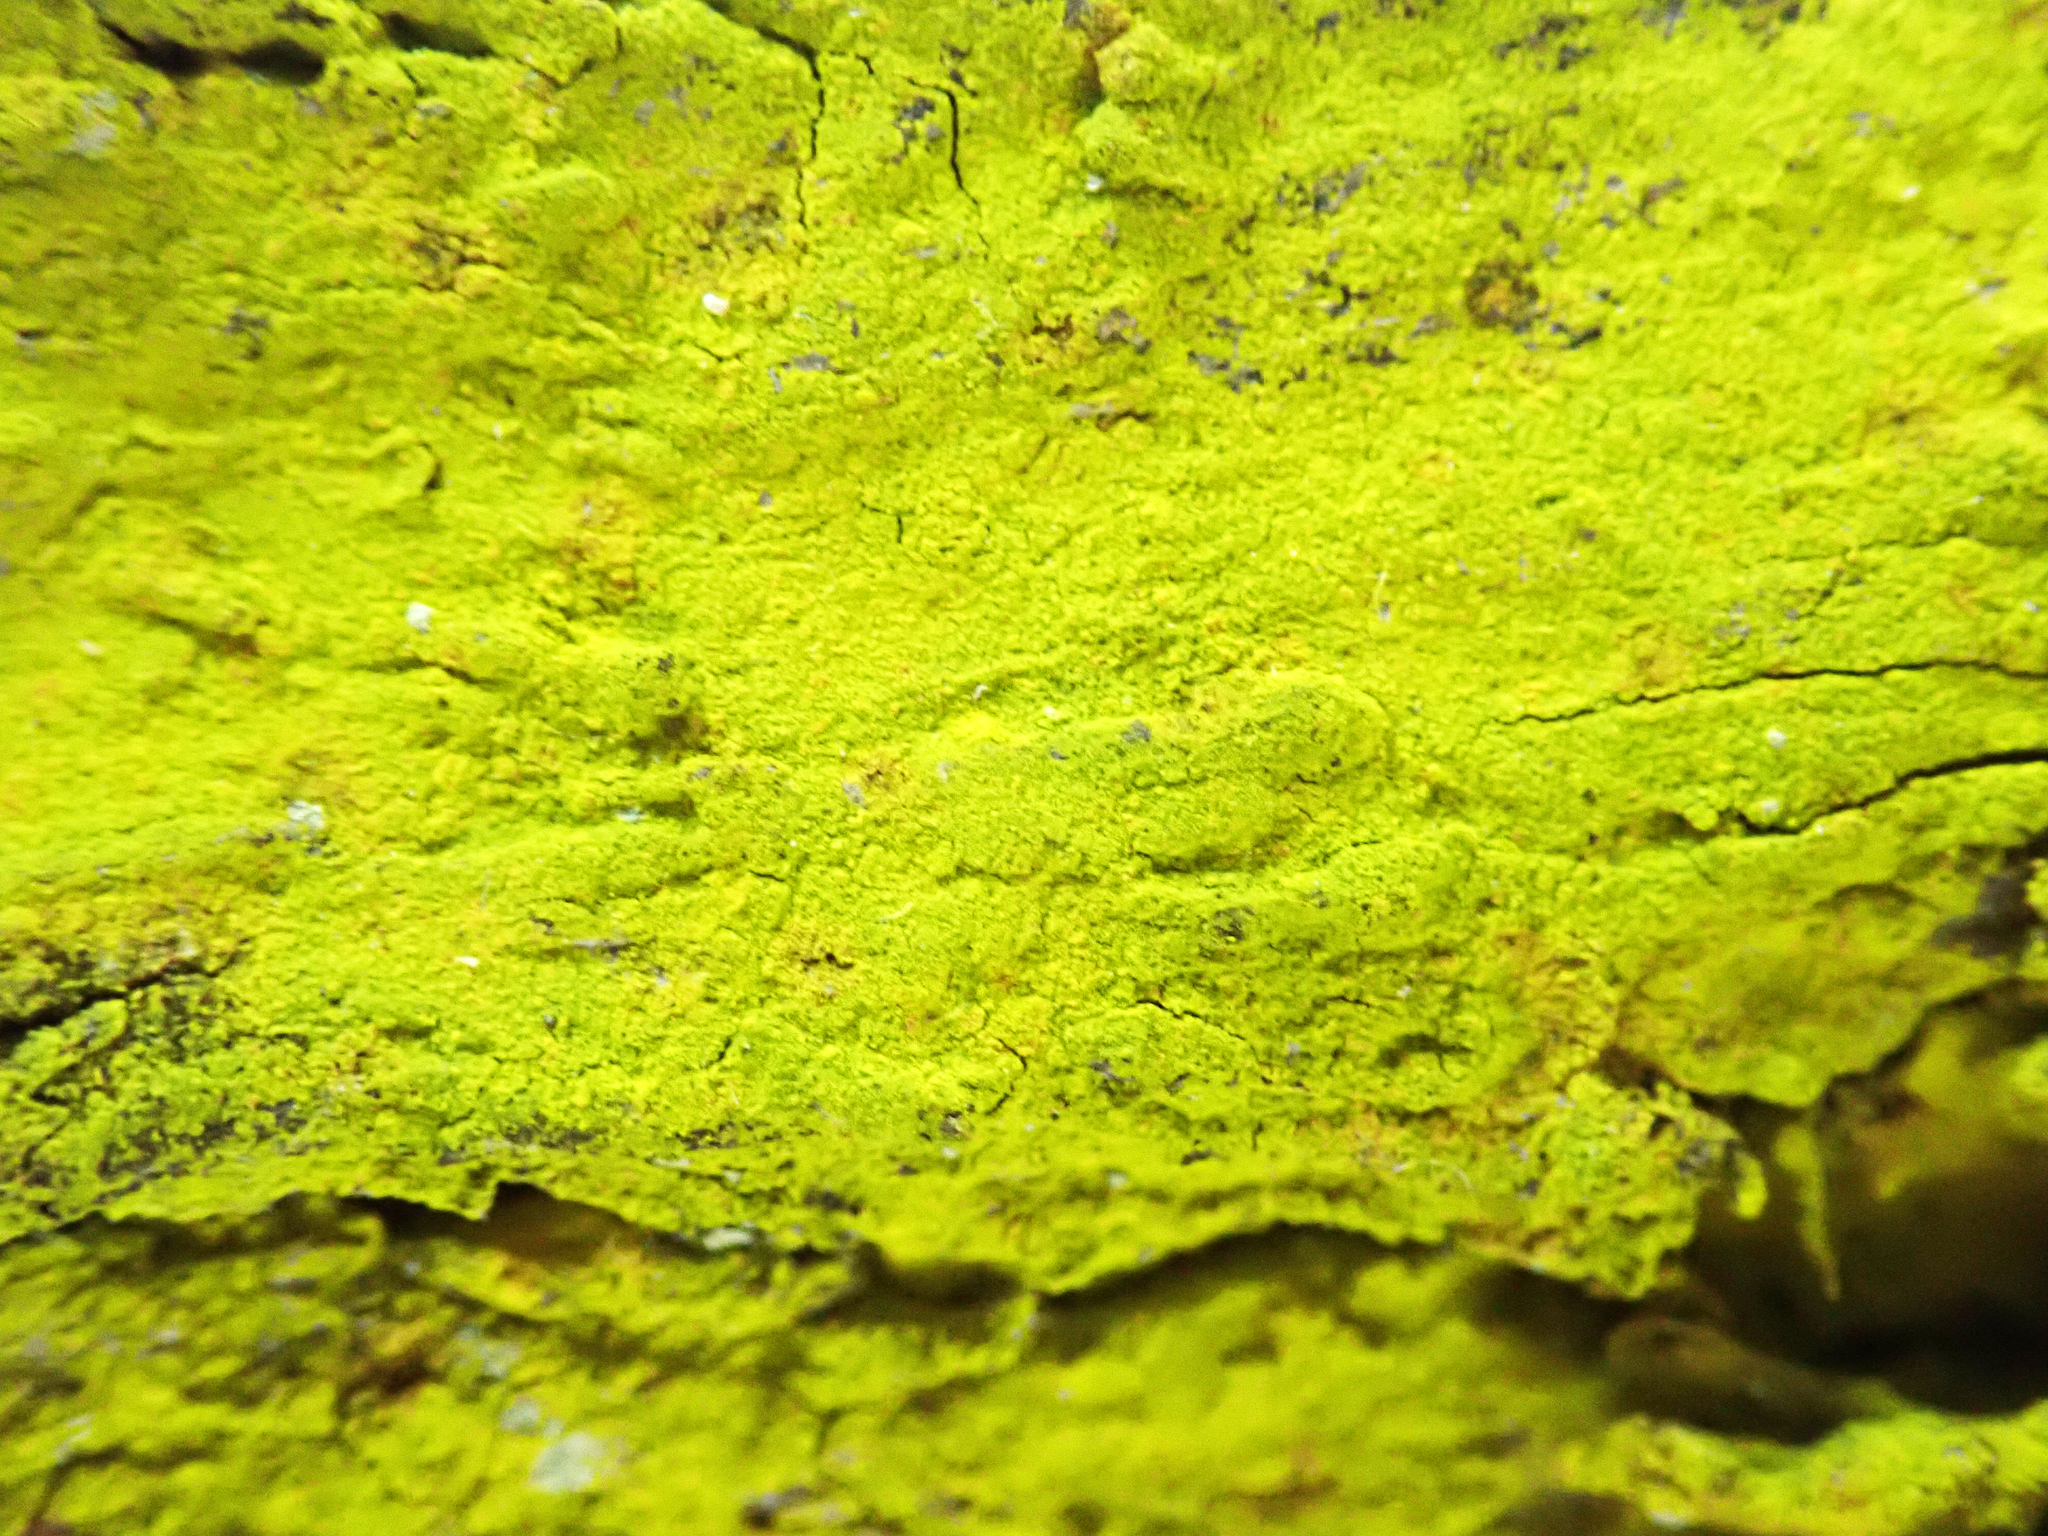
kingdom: Fungi
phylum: Ascomycota
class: Arthoniomycetes
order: Arthoniales
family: Chrysotrichaceae
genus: Chrysothrix
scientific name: Chrysothrix xanthina
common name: Common gold-dust
